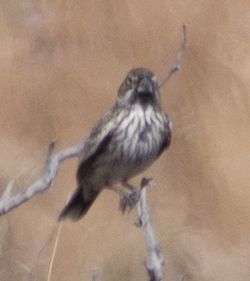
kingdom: Animalia
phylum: Chordata
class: Aves
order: Passeriformes
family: Passerellidae
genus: Calamospiza
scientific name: Calamospiza melanocorys
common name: Lark bunting
